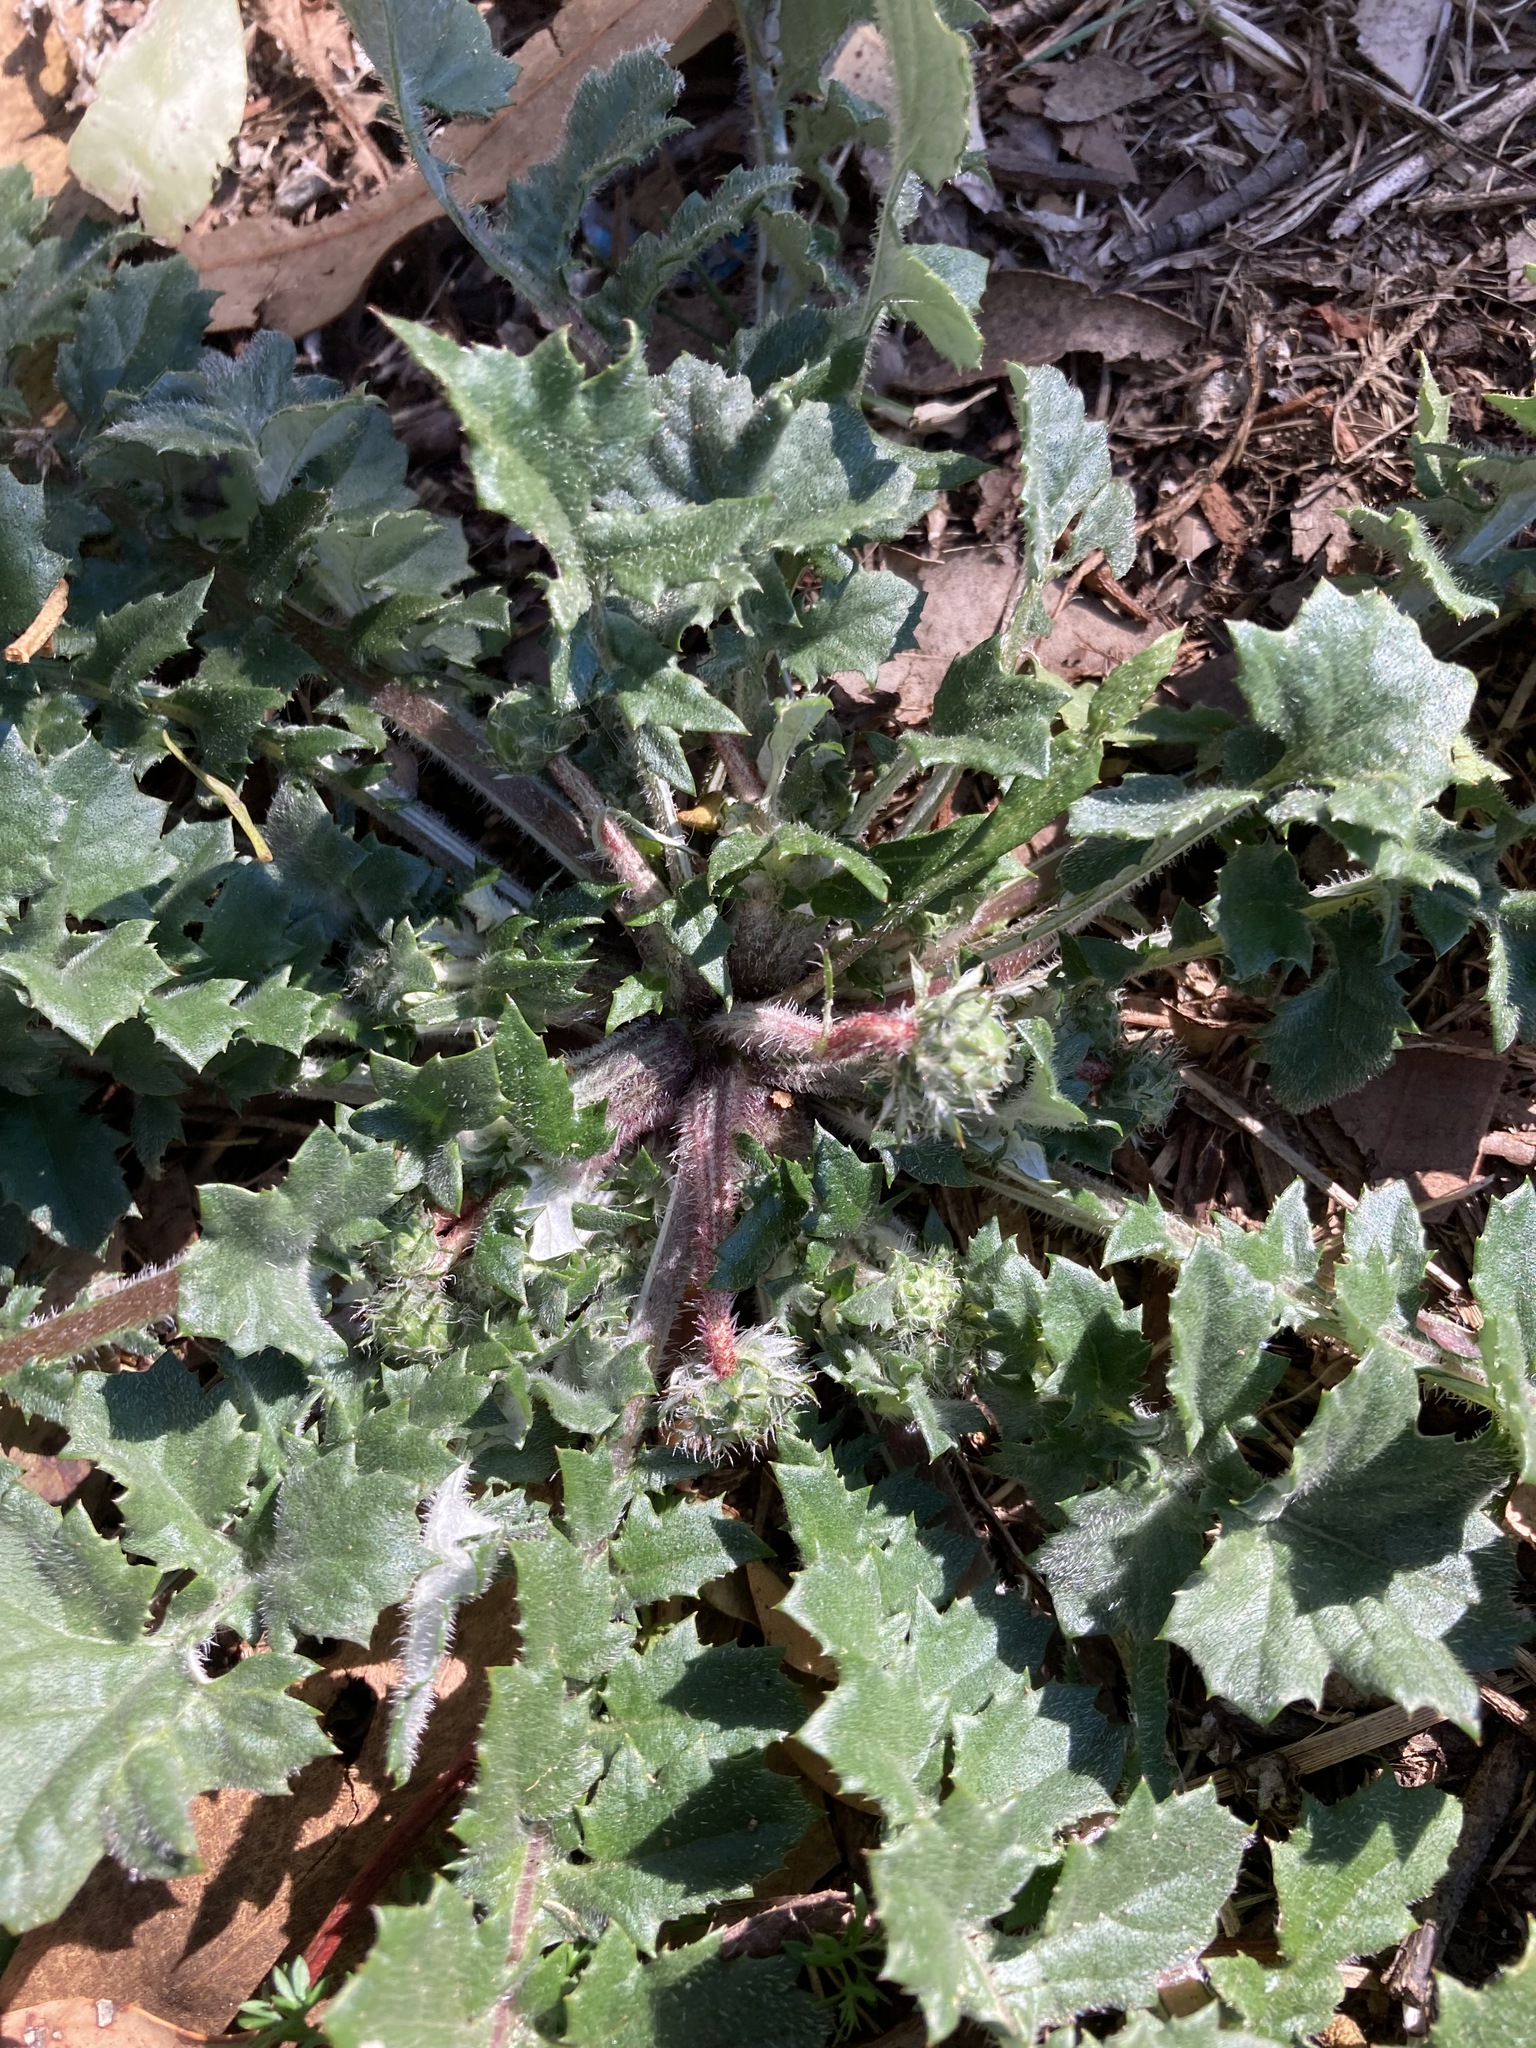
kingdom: Plantae
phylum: Tracheophyta
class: Magnoliopsida
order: Asterales
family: Asteraceae
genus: Arctotheca
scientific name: Arctotheca calendula
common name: Capeweed
